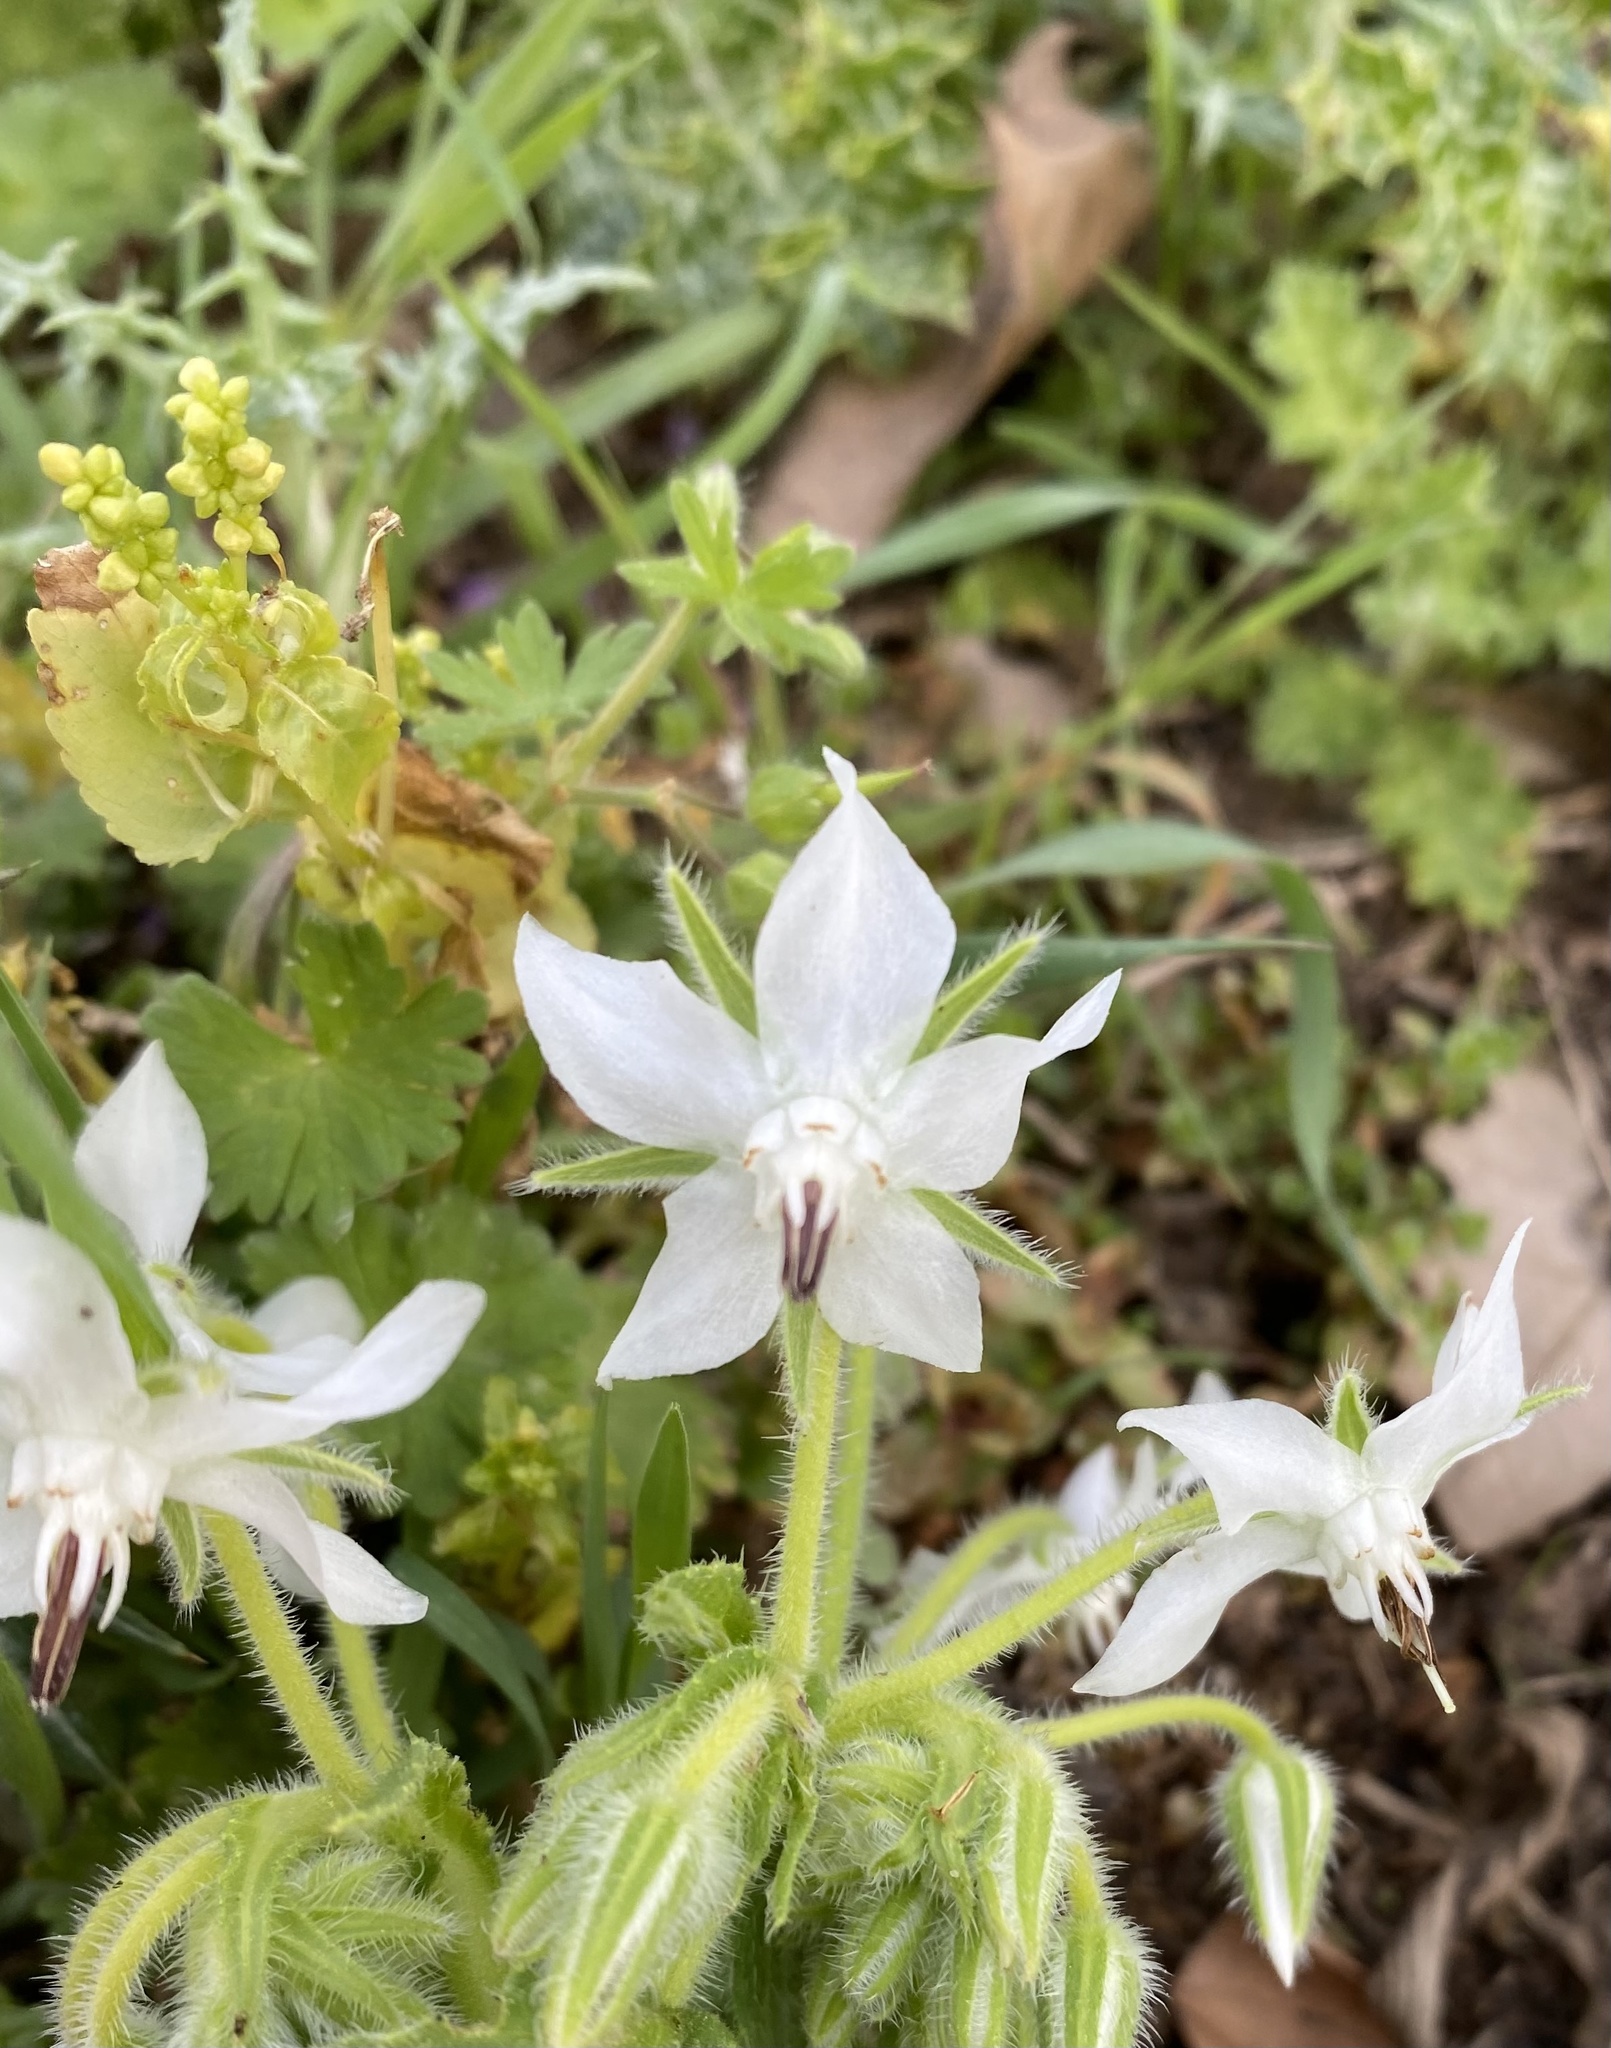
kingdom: Plantae
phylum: Tracheophyta
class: Magnoliopsida
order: Boraginales
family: Boraginaceae
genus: Borago
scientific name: Borago officinalis
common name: Borage
